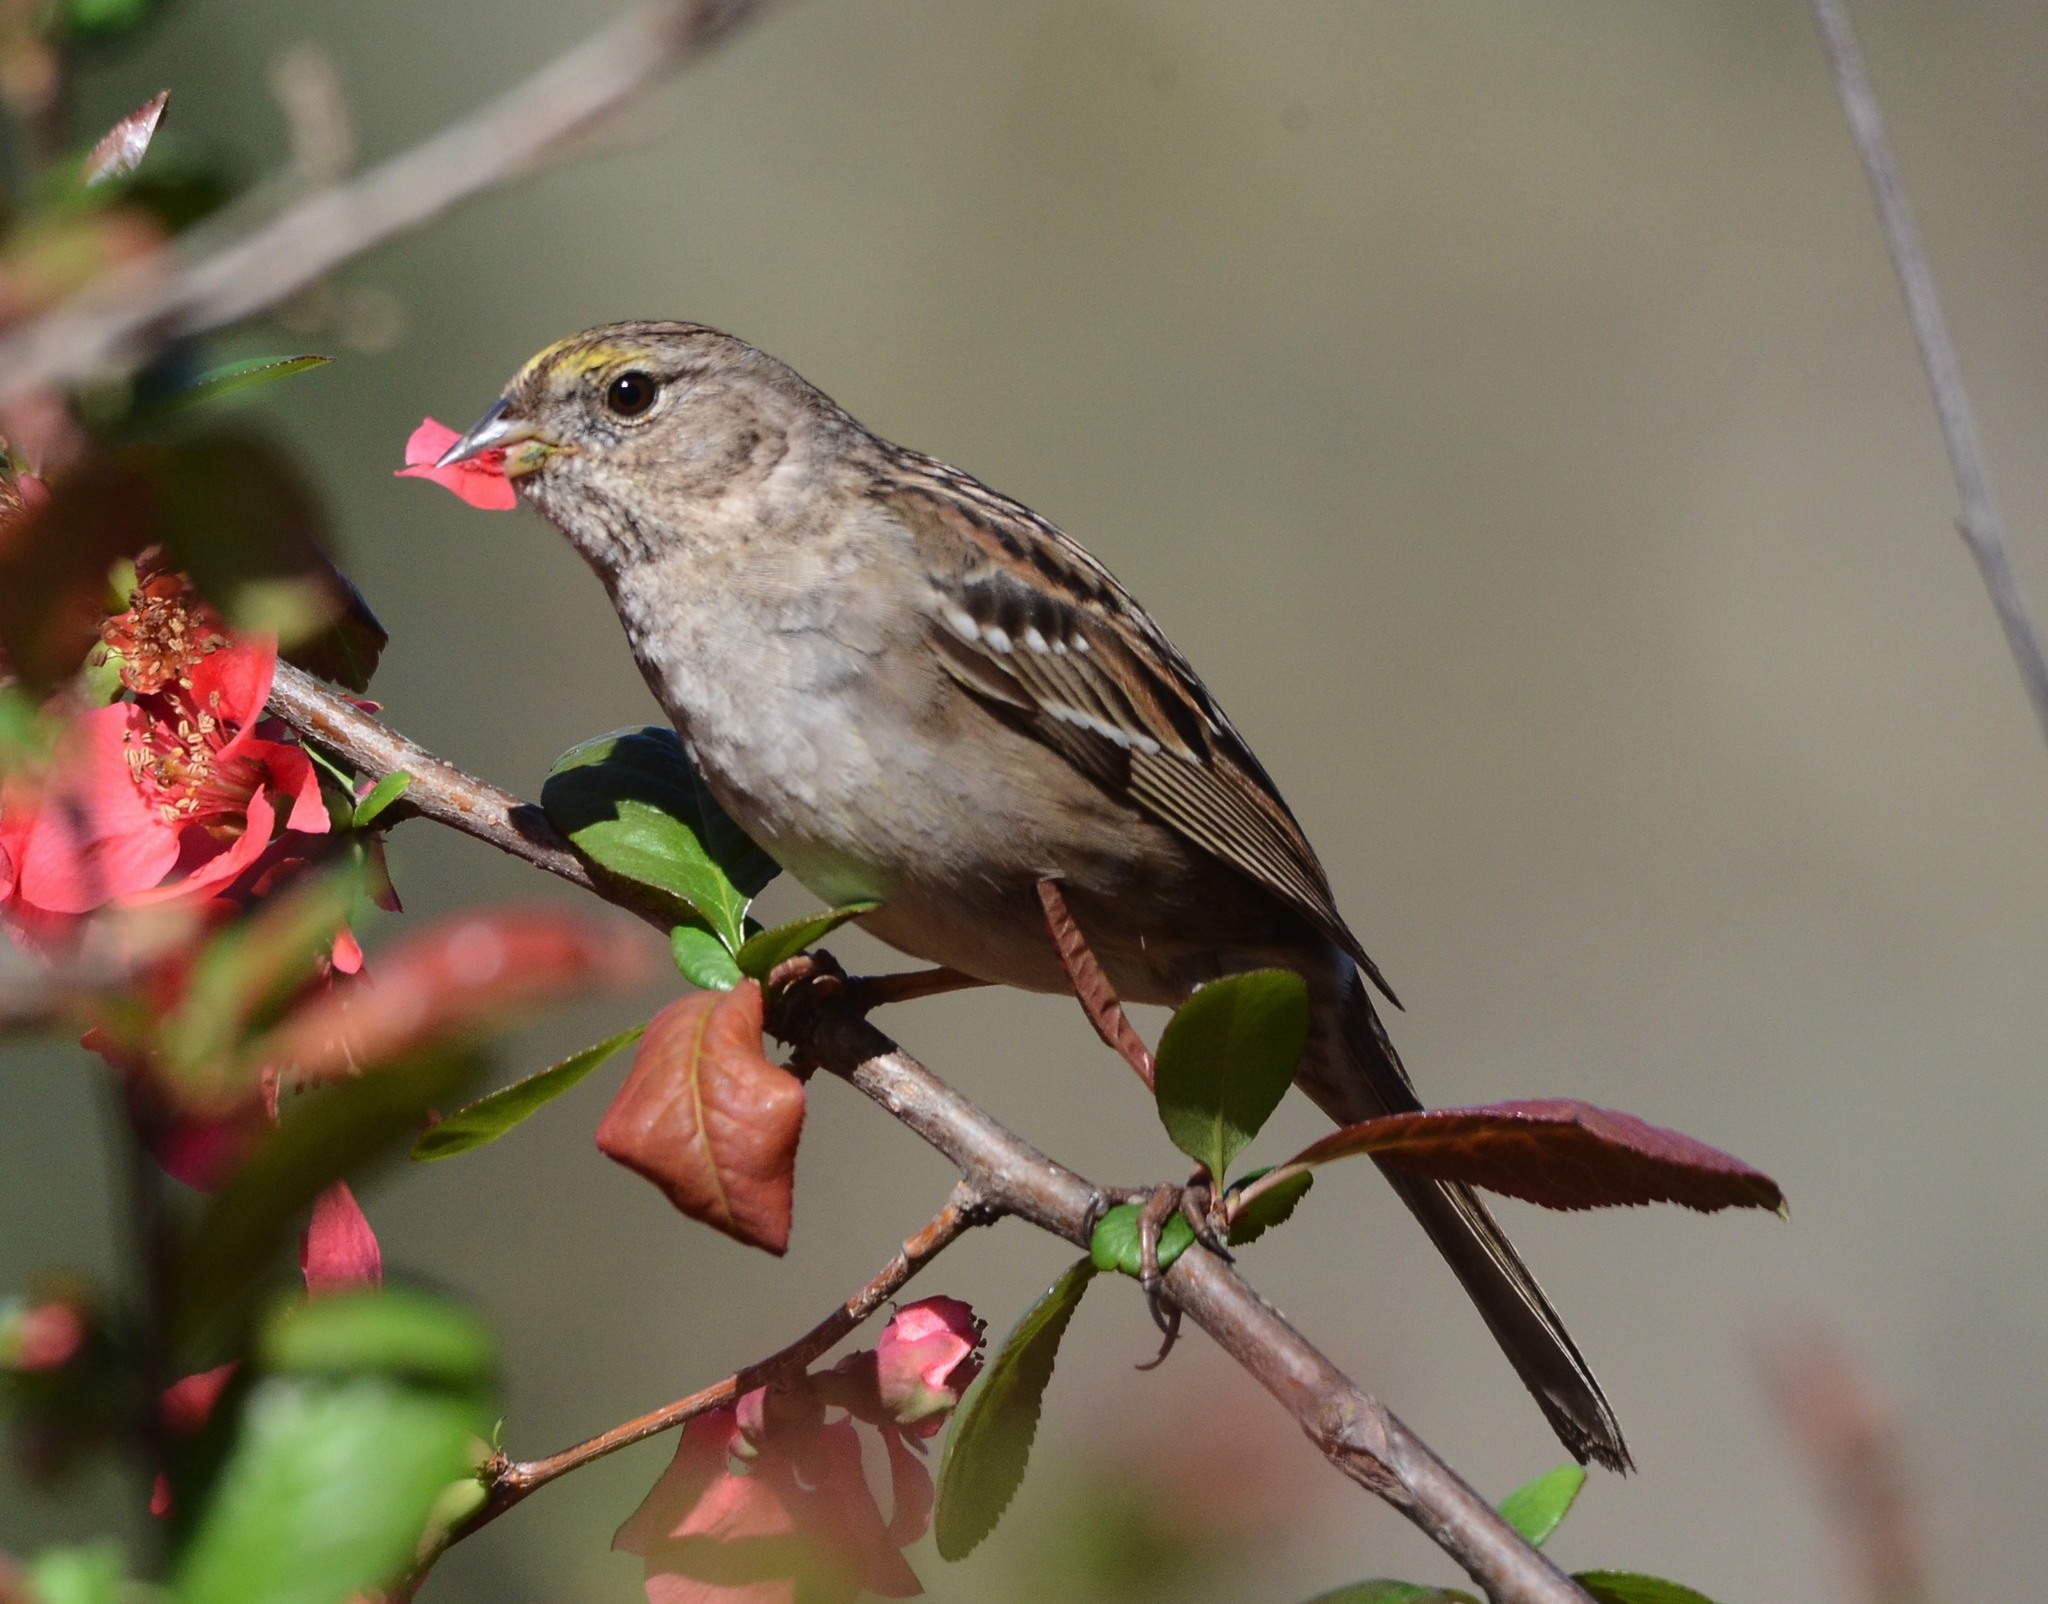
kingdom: Animalia
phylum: Chordata
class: Aves
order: Passeriformes
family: Passerellidae
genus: Zonotrichia
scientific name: Zonotrichia atricapilla
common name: Golden-crowned sparrow
